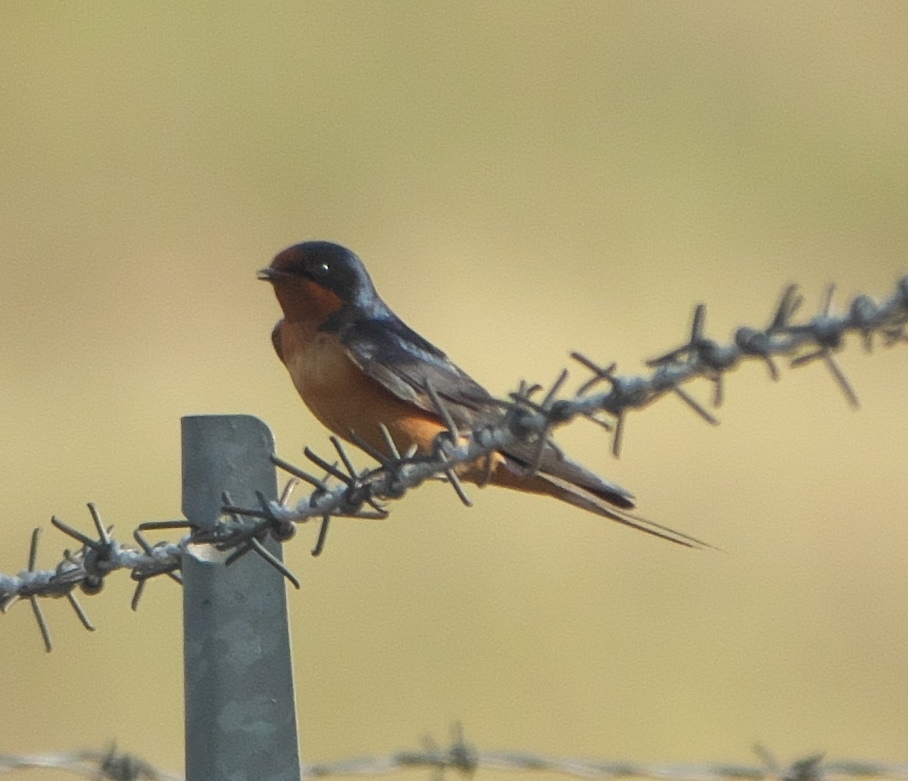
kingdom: Animalia
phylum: Chordata
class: Aves
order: Passeriformes
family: Hirundinidae
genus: Hirundo
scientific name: Hirundo rustica
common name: Barn swallow
